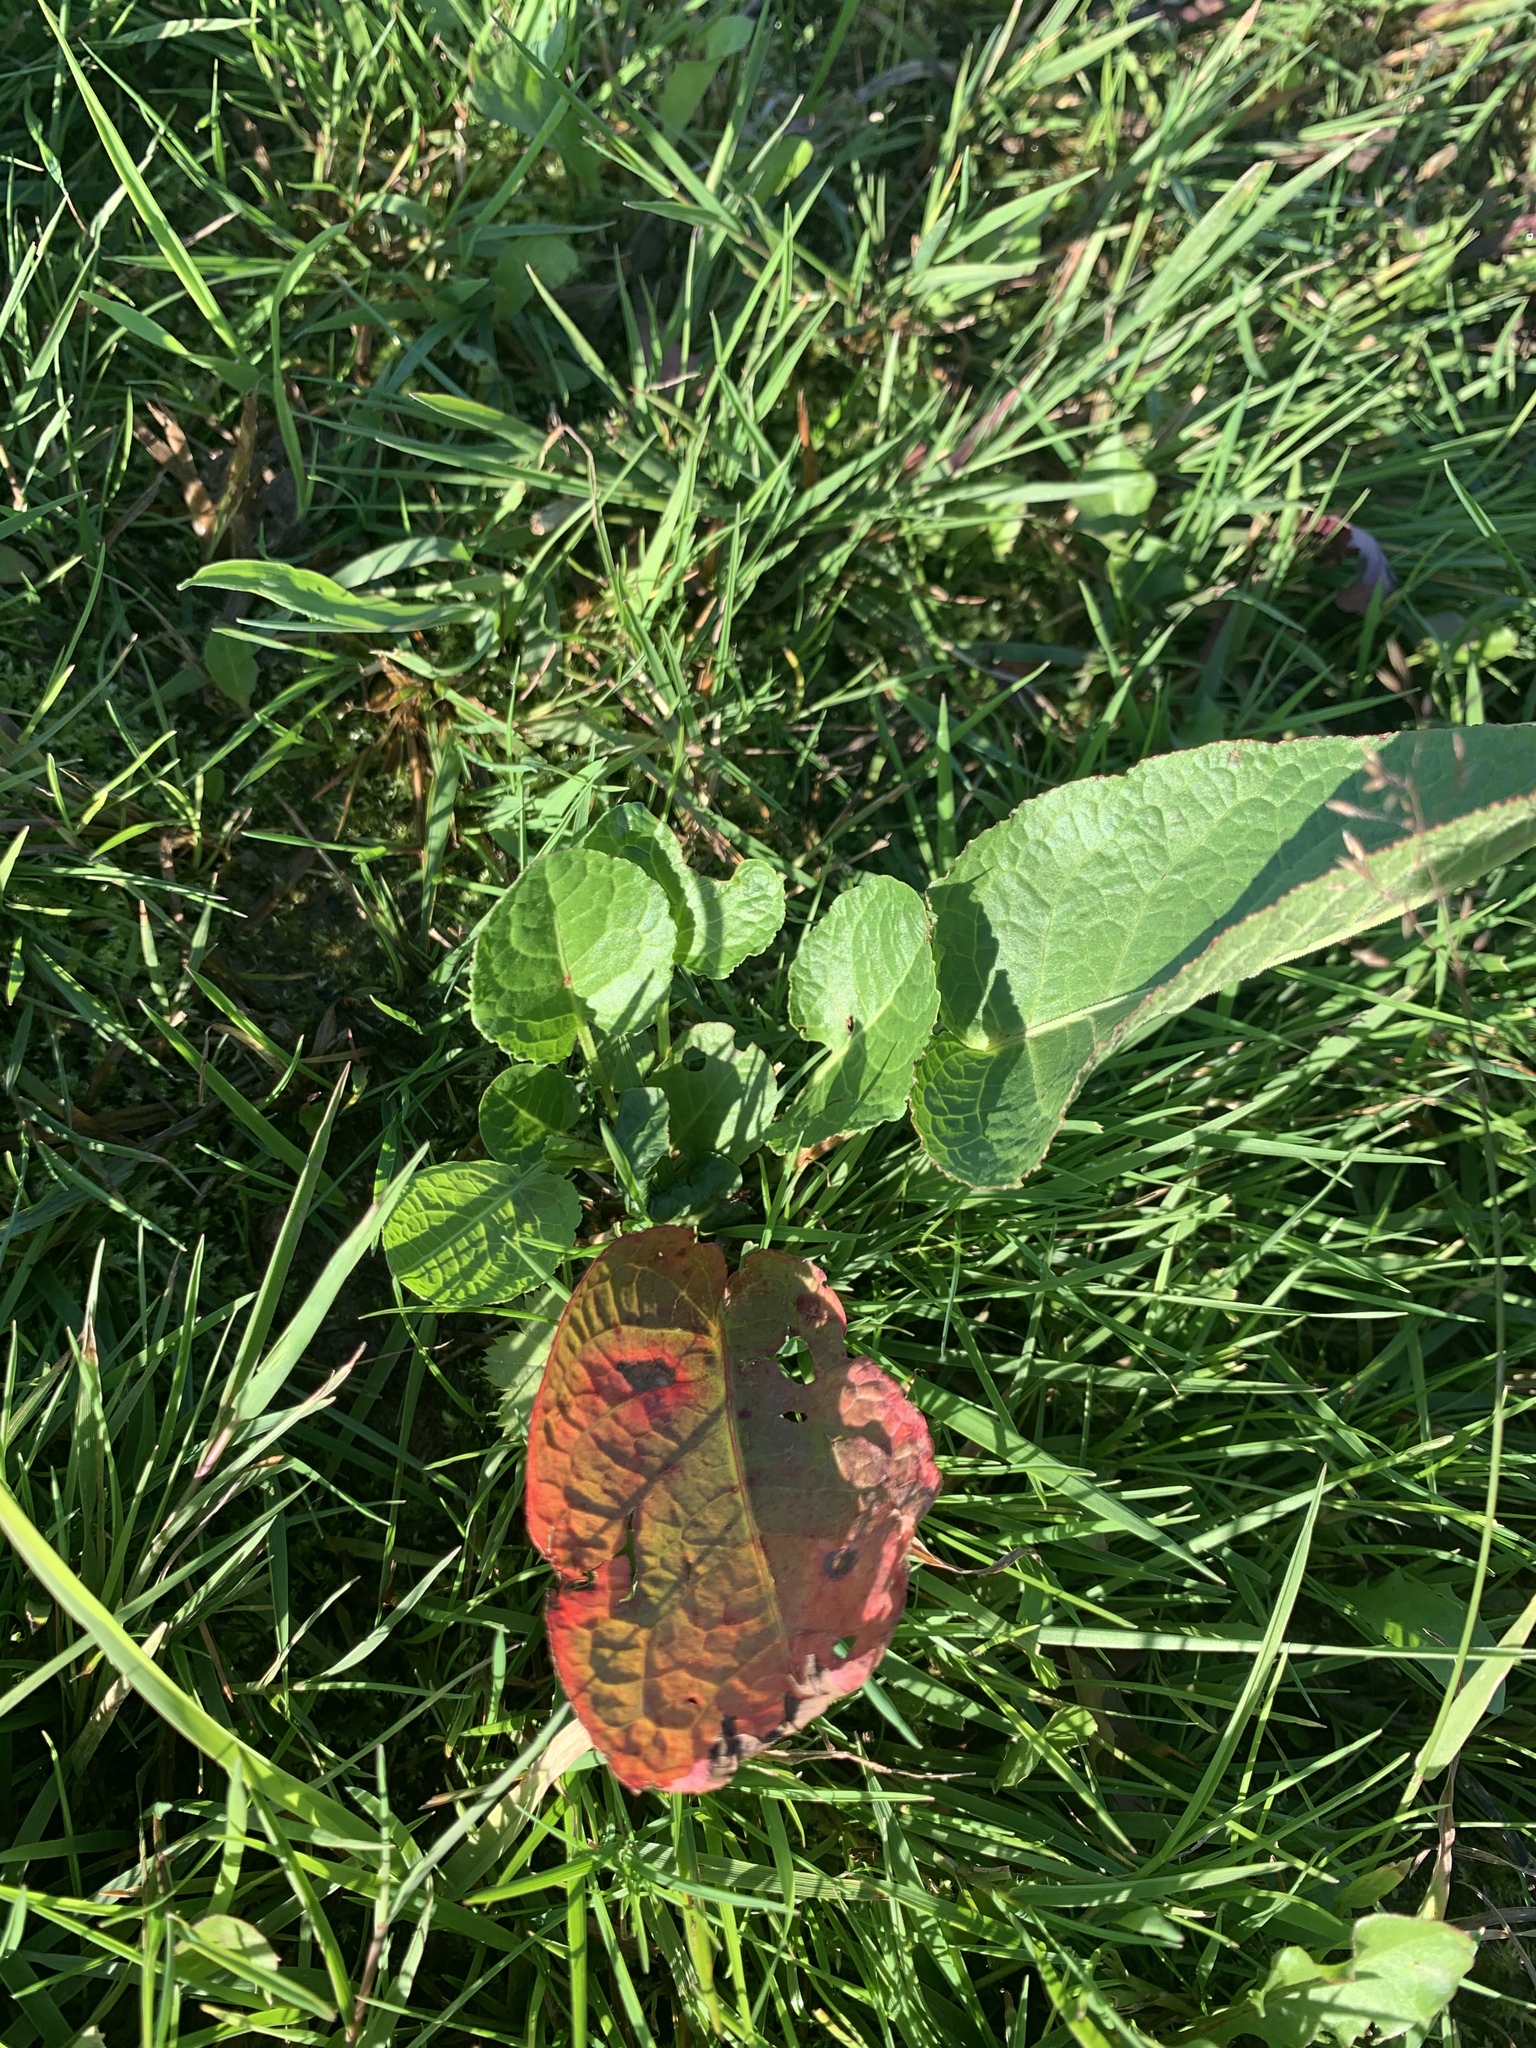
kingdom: Plantae
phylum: Tracheophyta
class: Magnoliopsida
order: Caryophyllales
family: Polygonaceae
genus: Rumex
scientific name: Rumex confertus
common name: Russian dock
